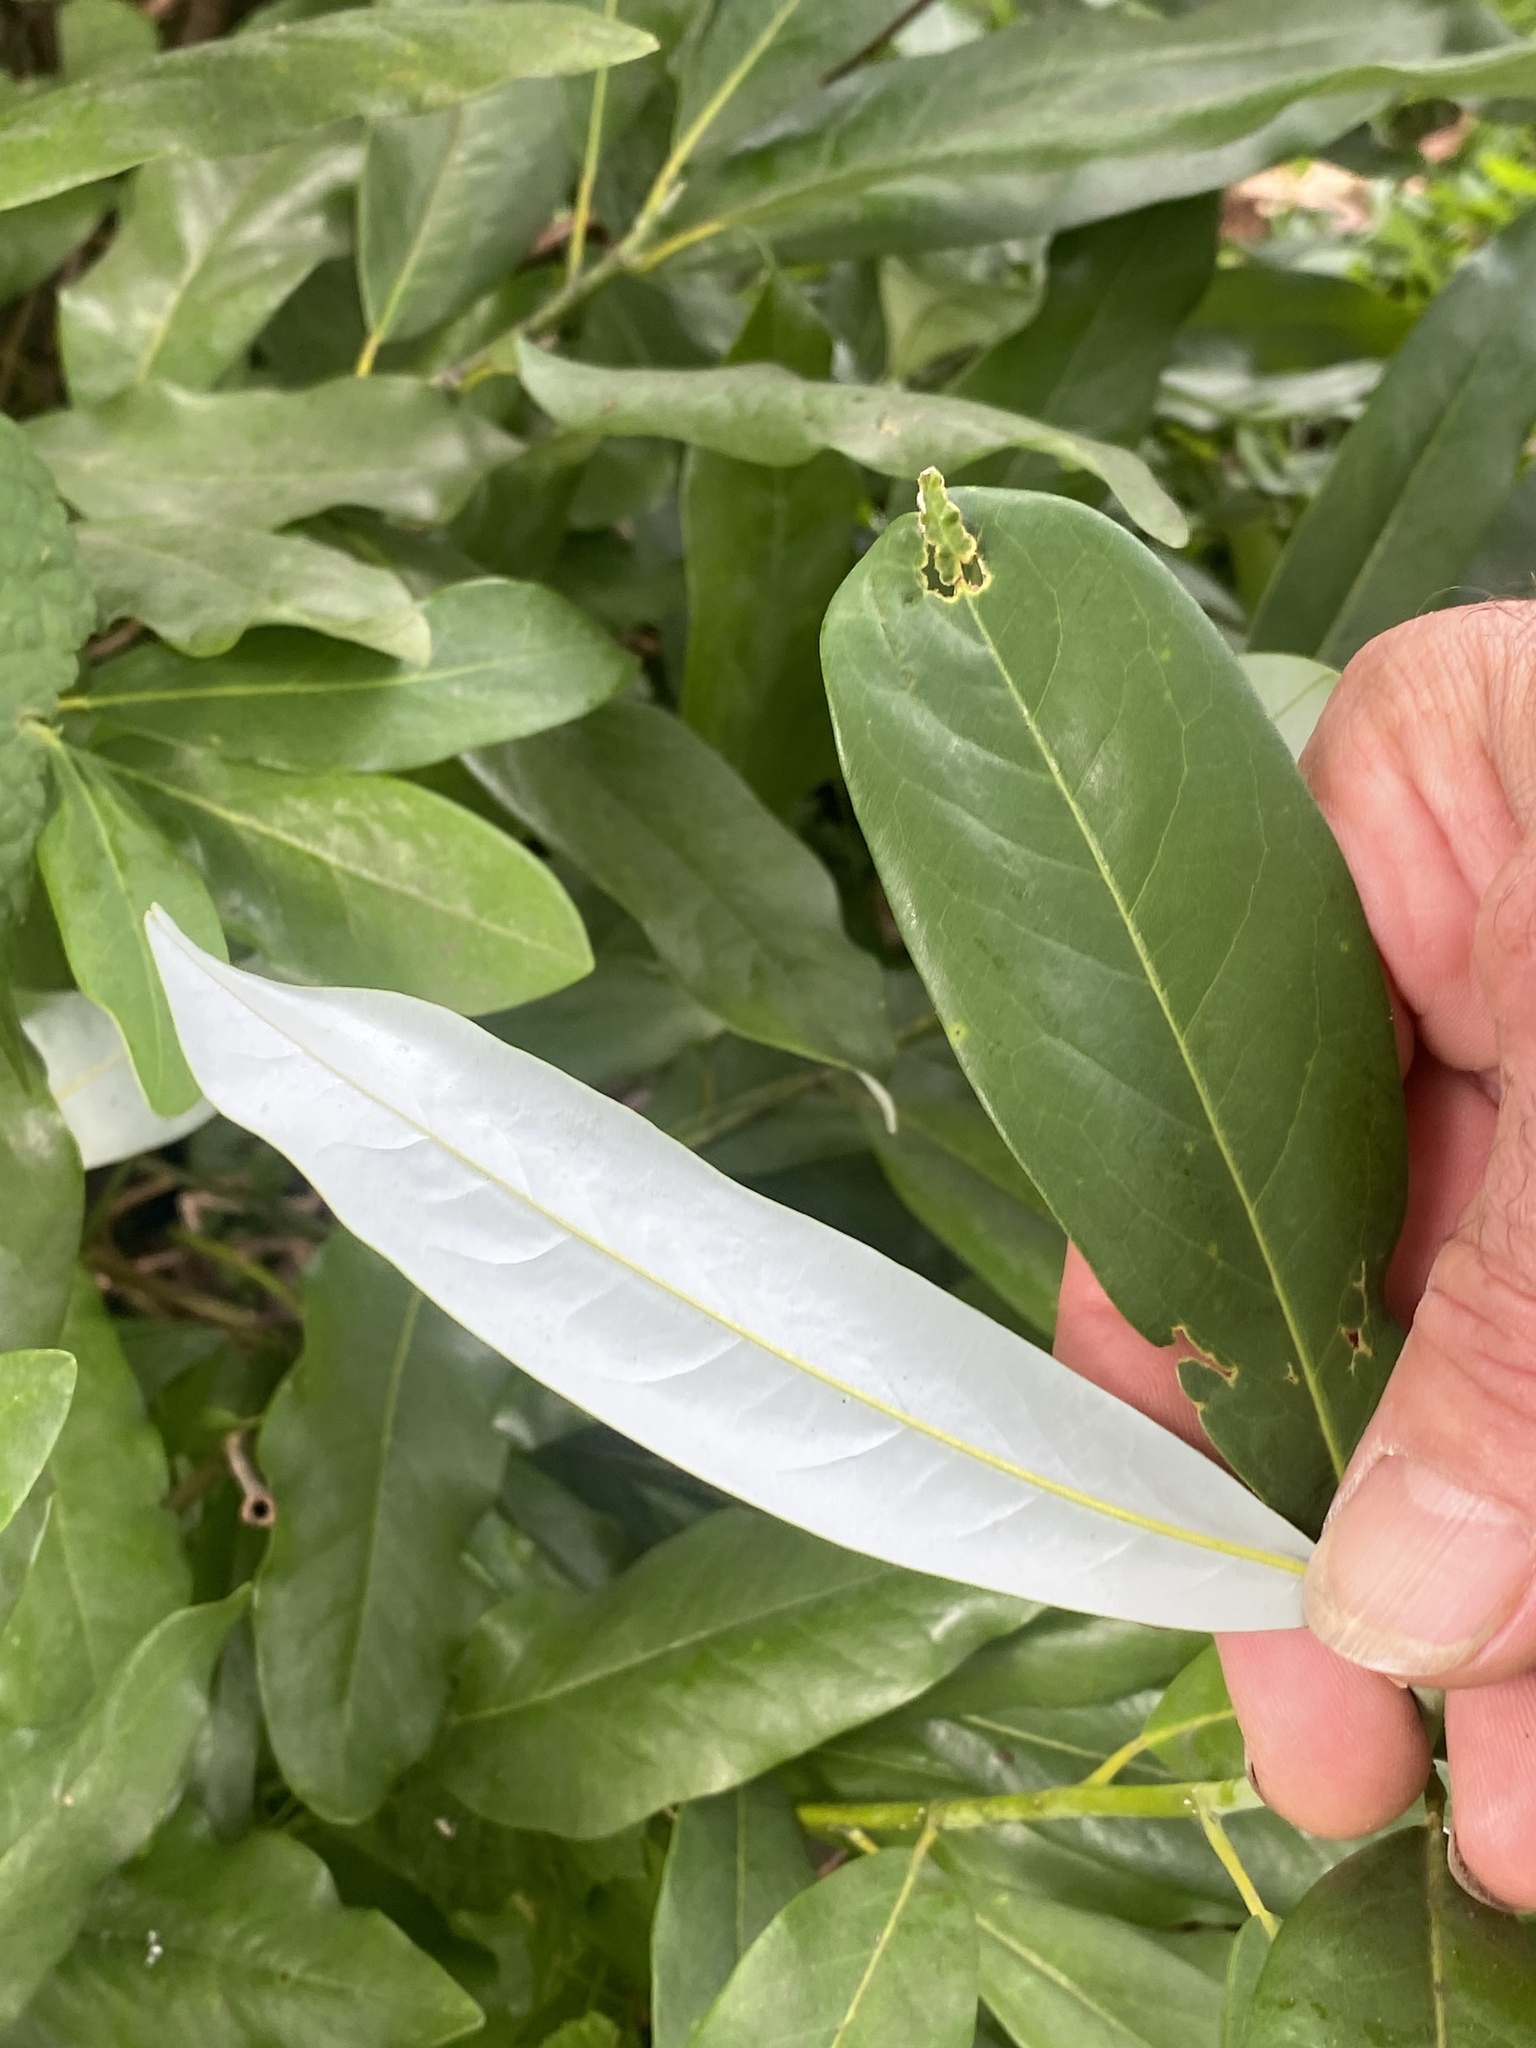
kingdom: Plantae
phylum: Tracheophyta
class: Magnoliopsida
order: Magnoliales
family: Magnoliaceae
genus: Magnolia
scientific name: Magnolia virginiana
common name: Swamp bay
